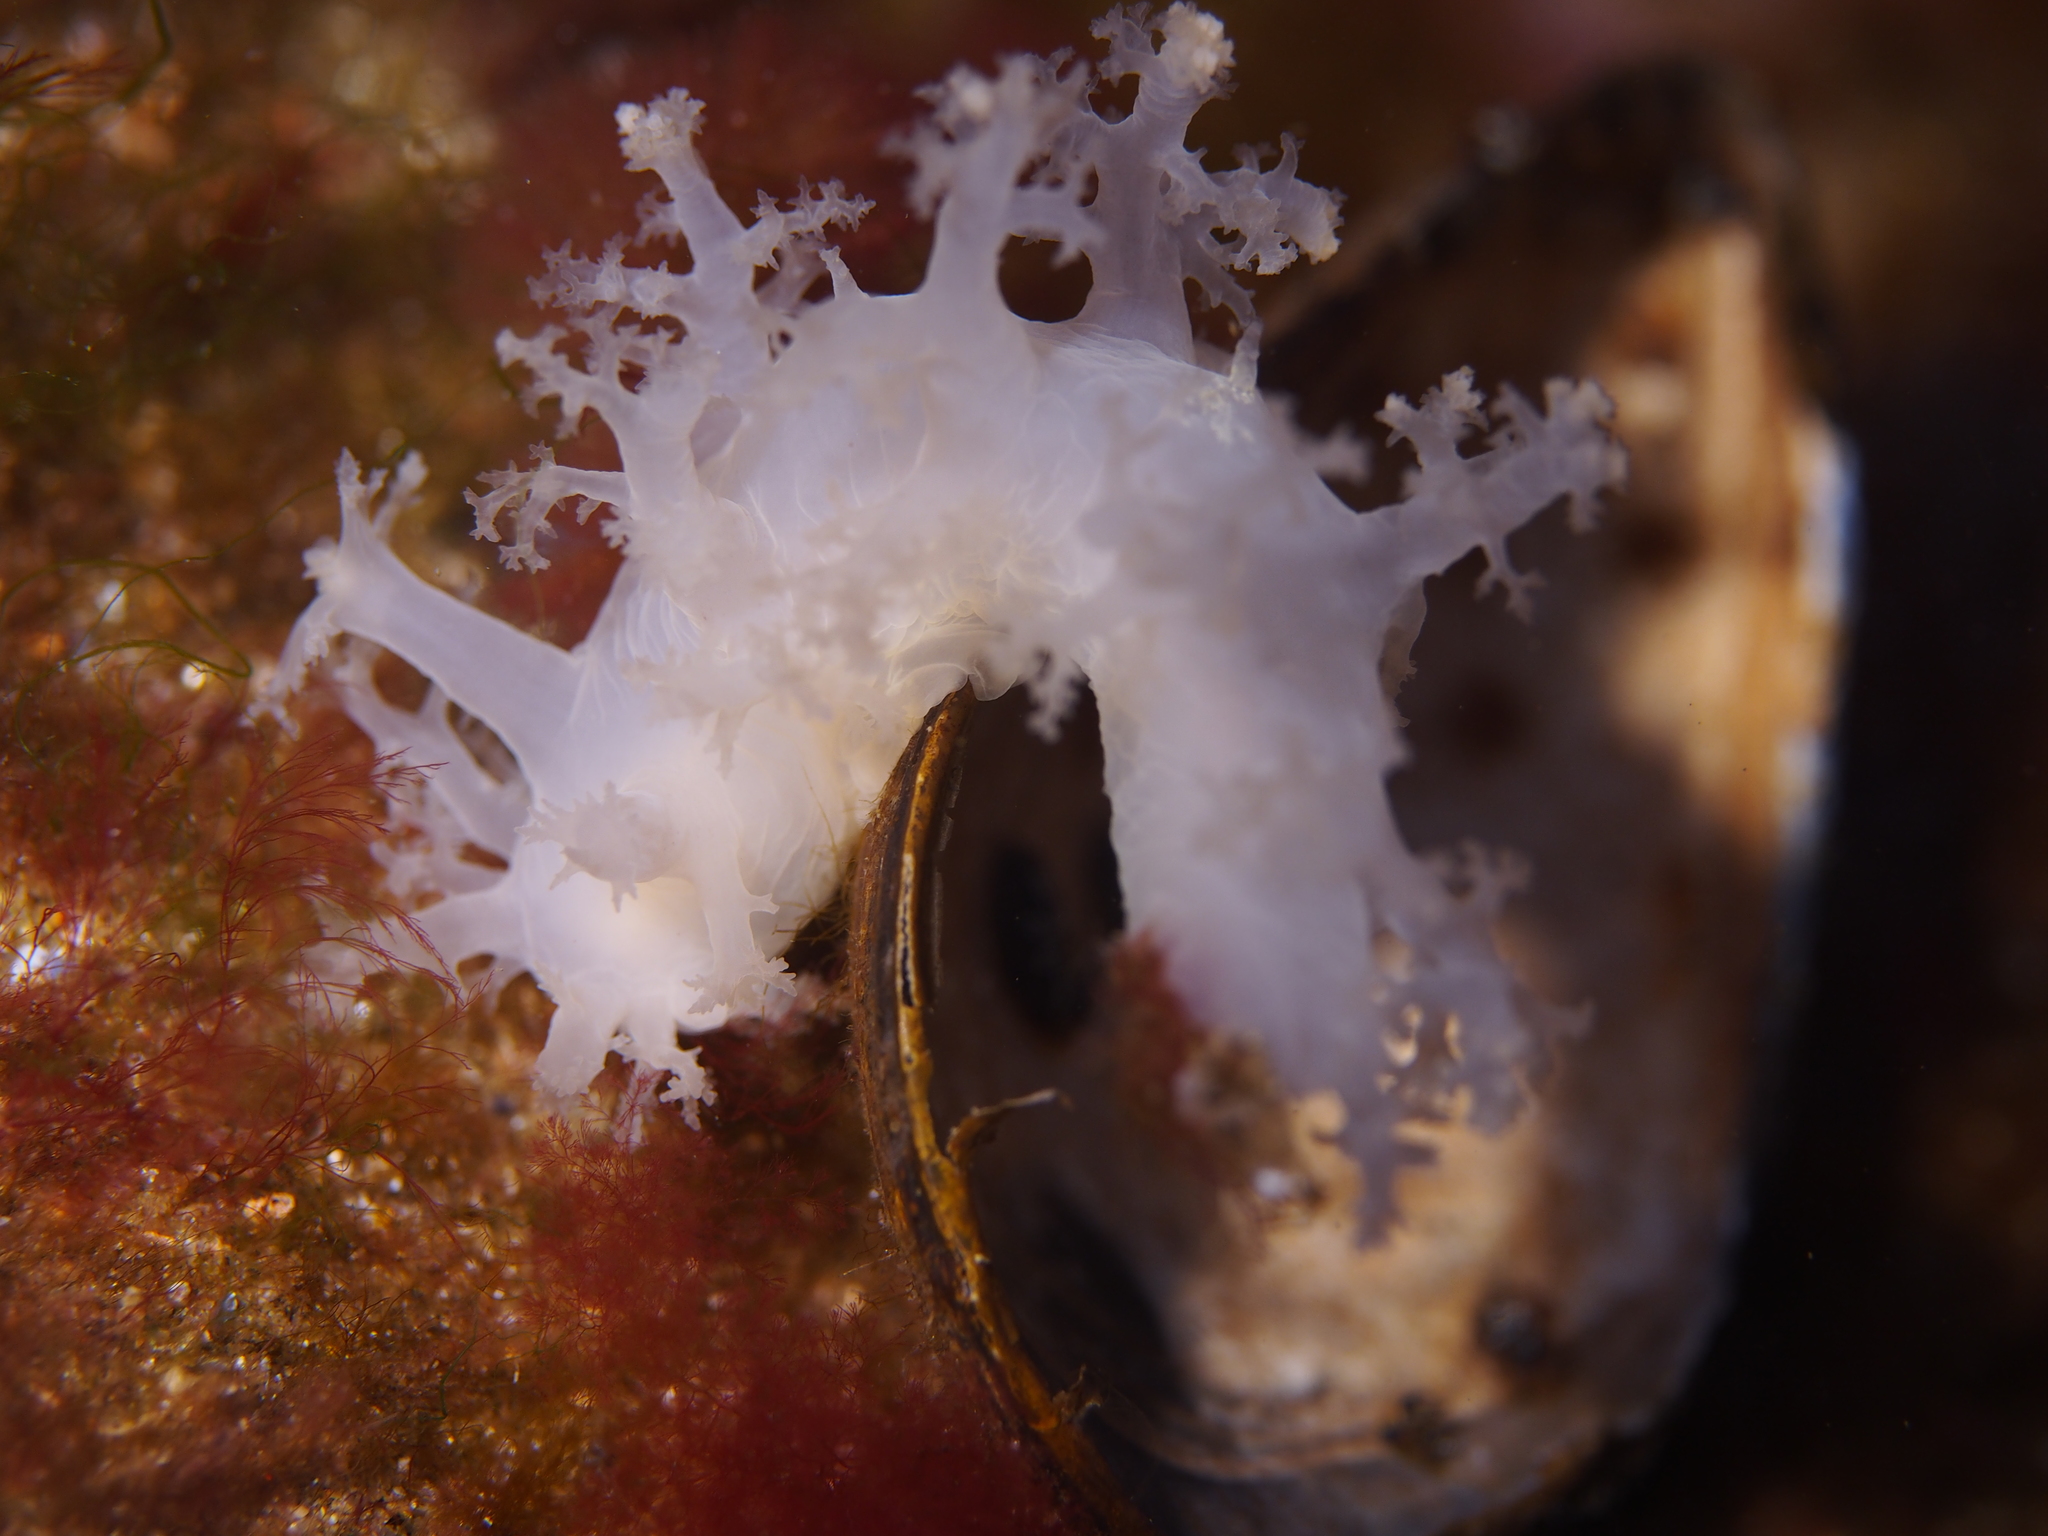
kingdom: Animalia
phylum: Mollusca
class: Gastropoda
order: Nudibranchia
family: Dendronotidae
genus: Dendronotus
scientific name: Dendronotus lacteus
